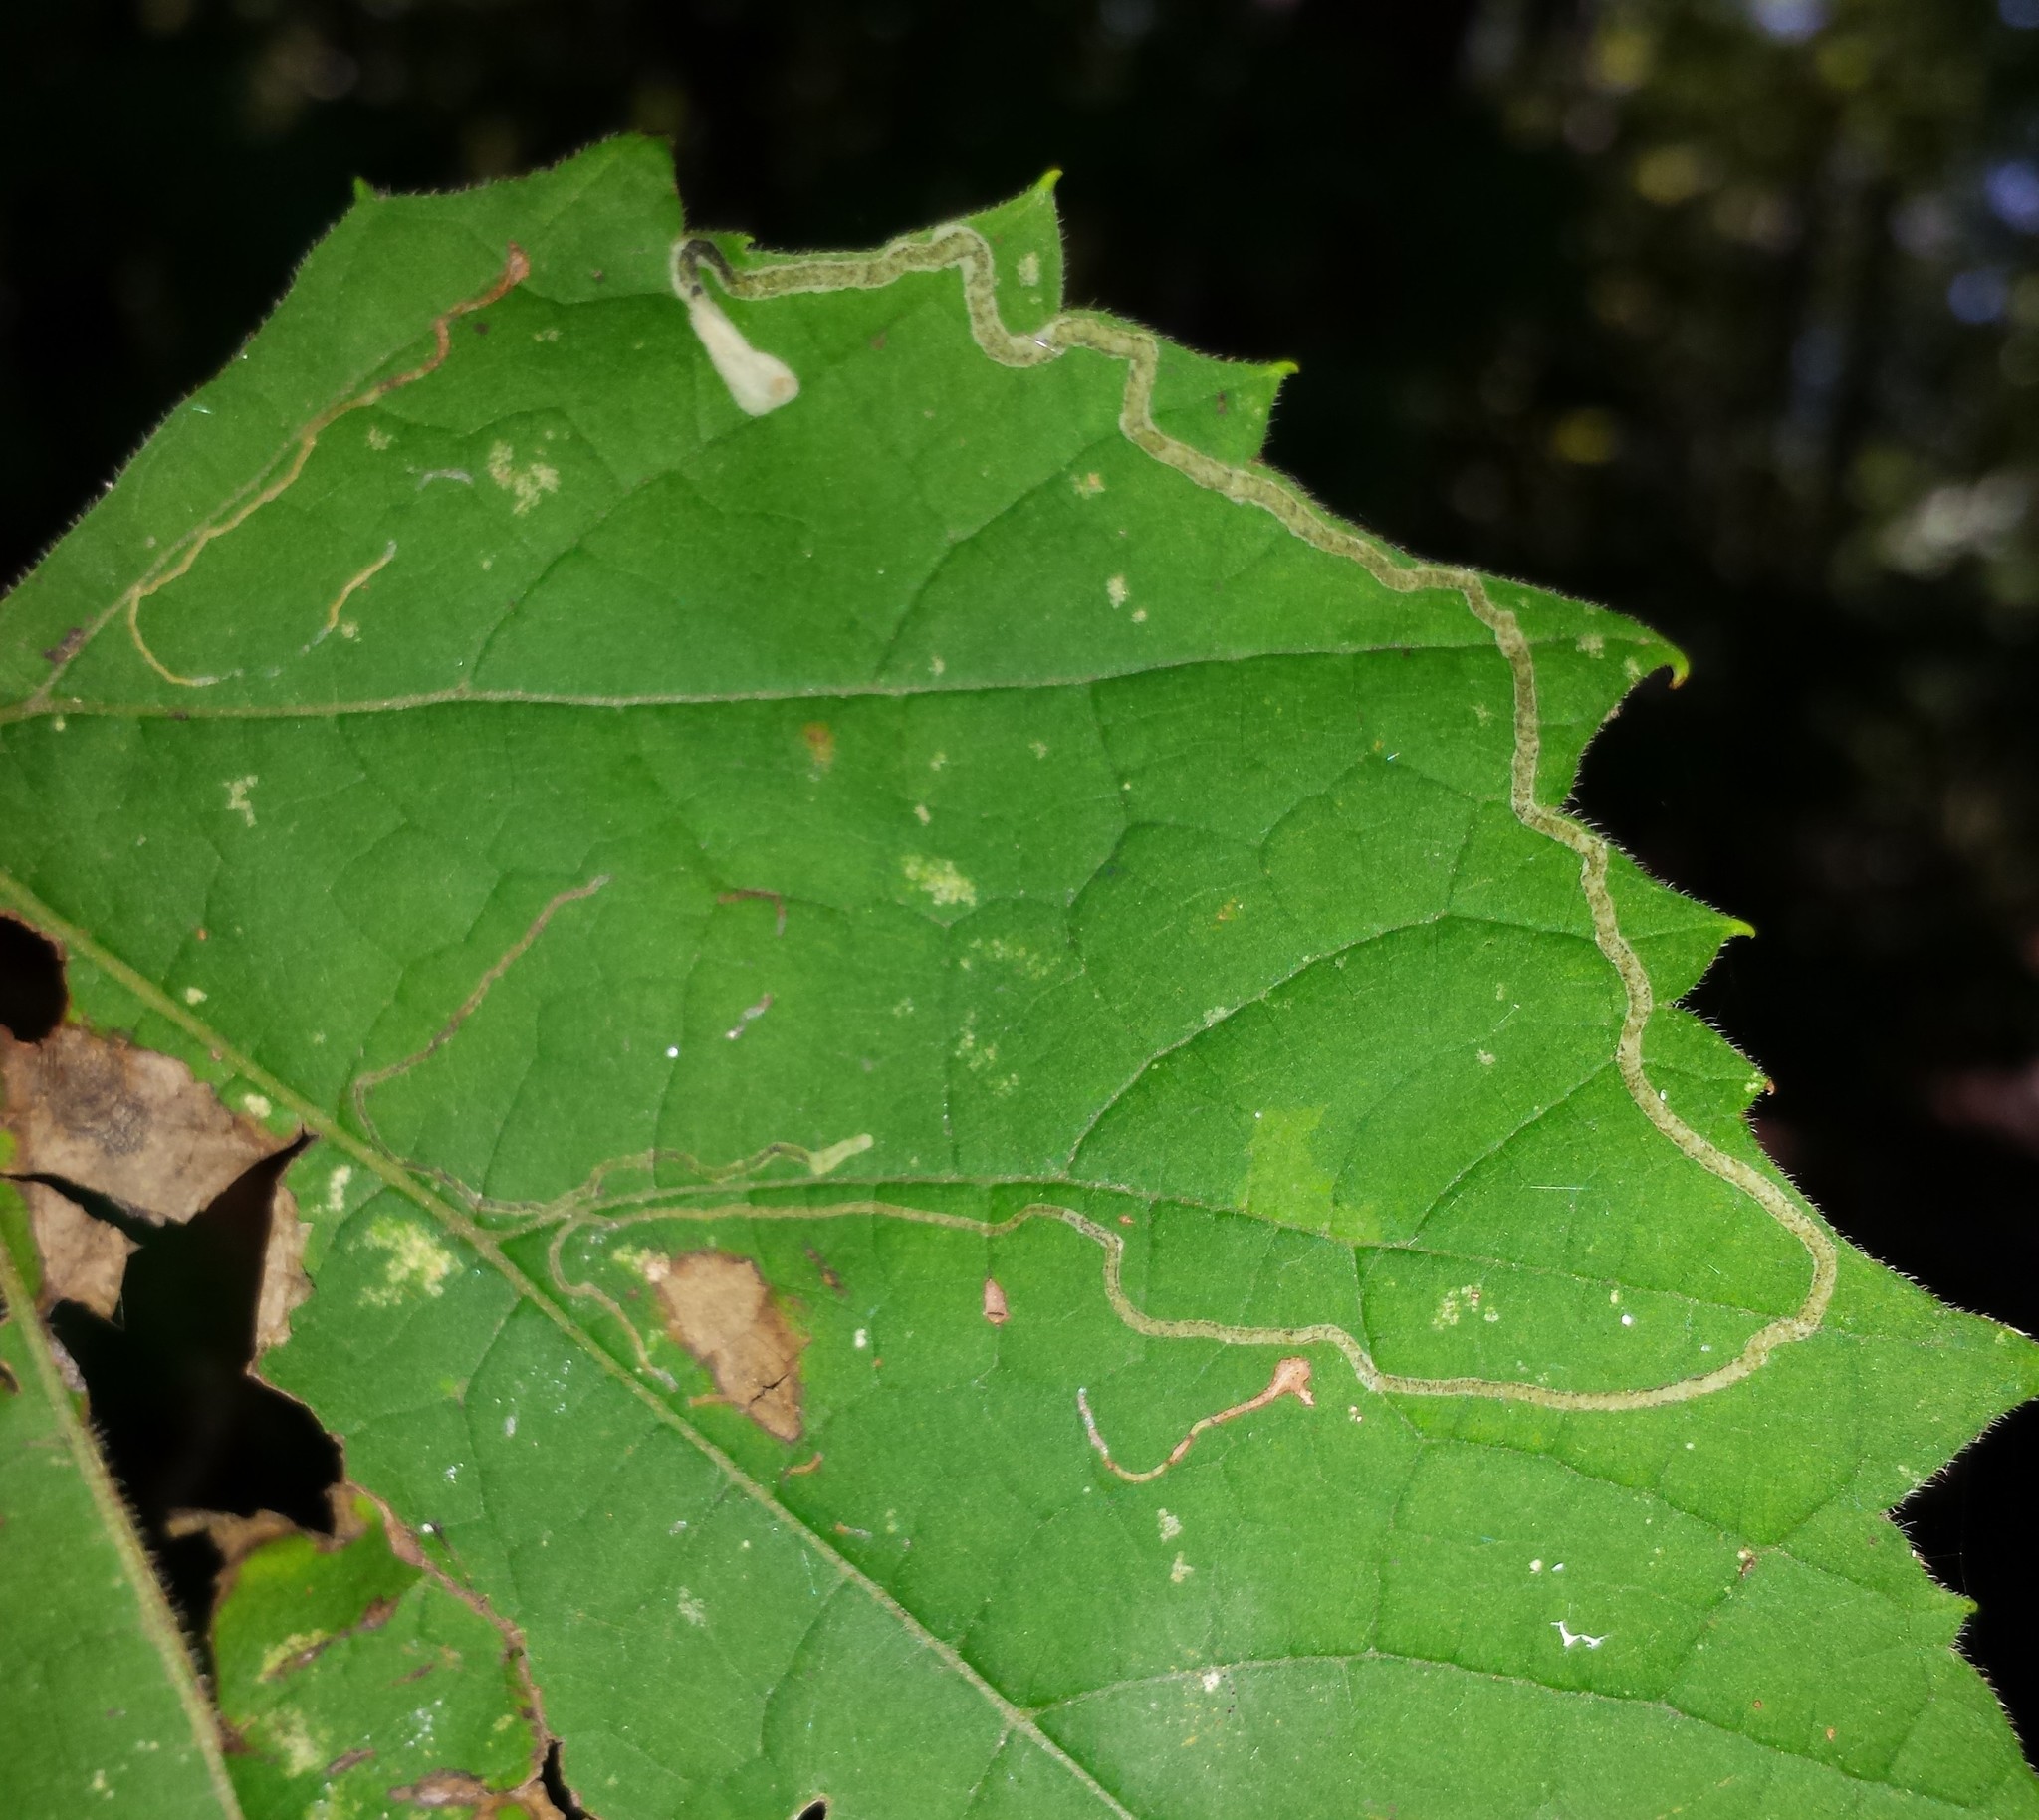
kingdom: Animalia
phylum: Arthropoda
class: Insecta
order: Lepidoptera
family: Gracillariidae
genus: Phyllocnistis
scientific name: Phyllocnistis vitifoliella
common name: Grape leaf-miner moth
